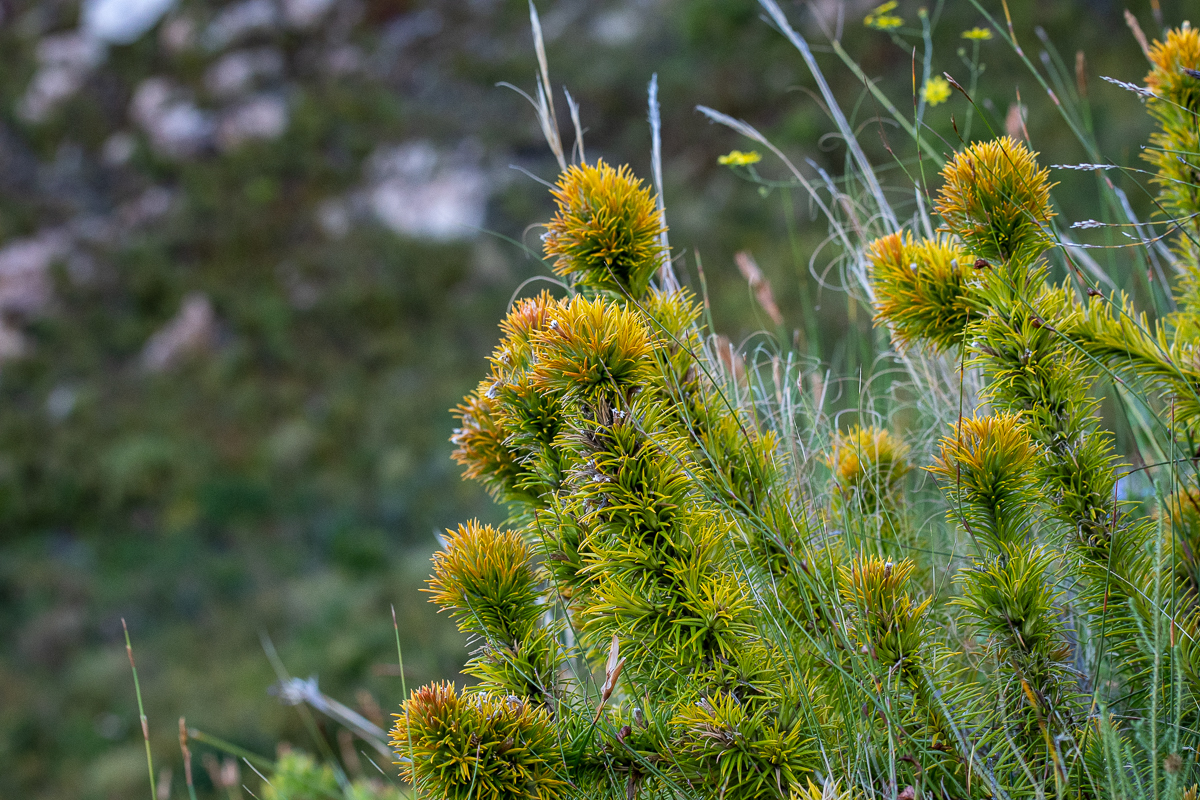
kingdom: Plantae
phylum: Tracheophyta
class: Magnoliopsida
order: Lamiales
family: Stilbaceae
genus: Retzia
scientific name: Retzia capensis
